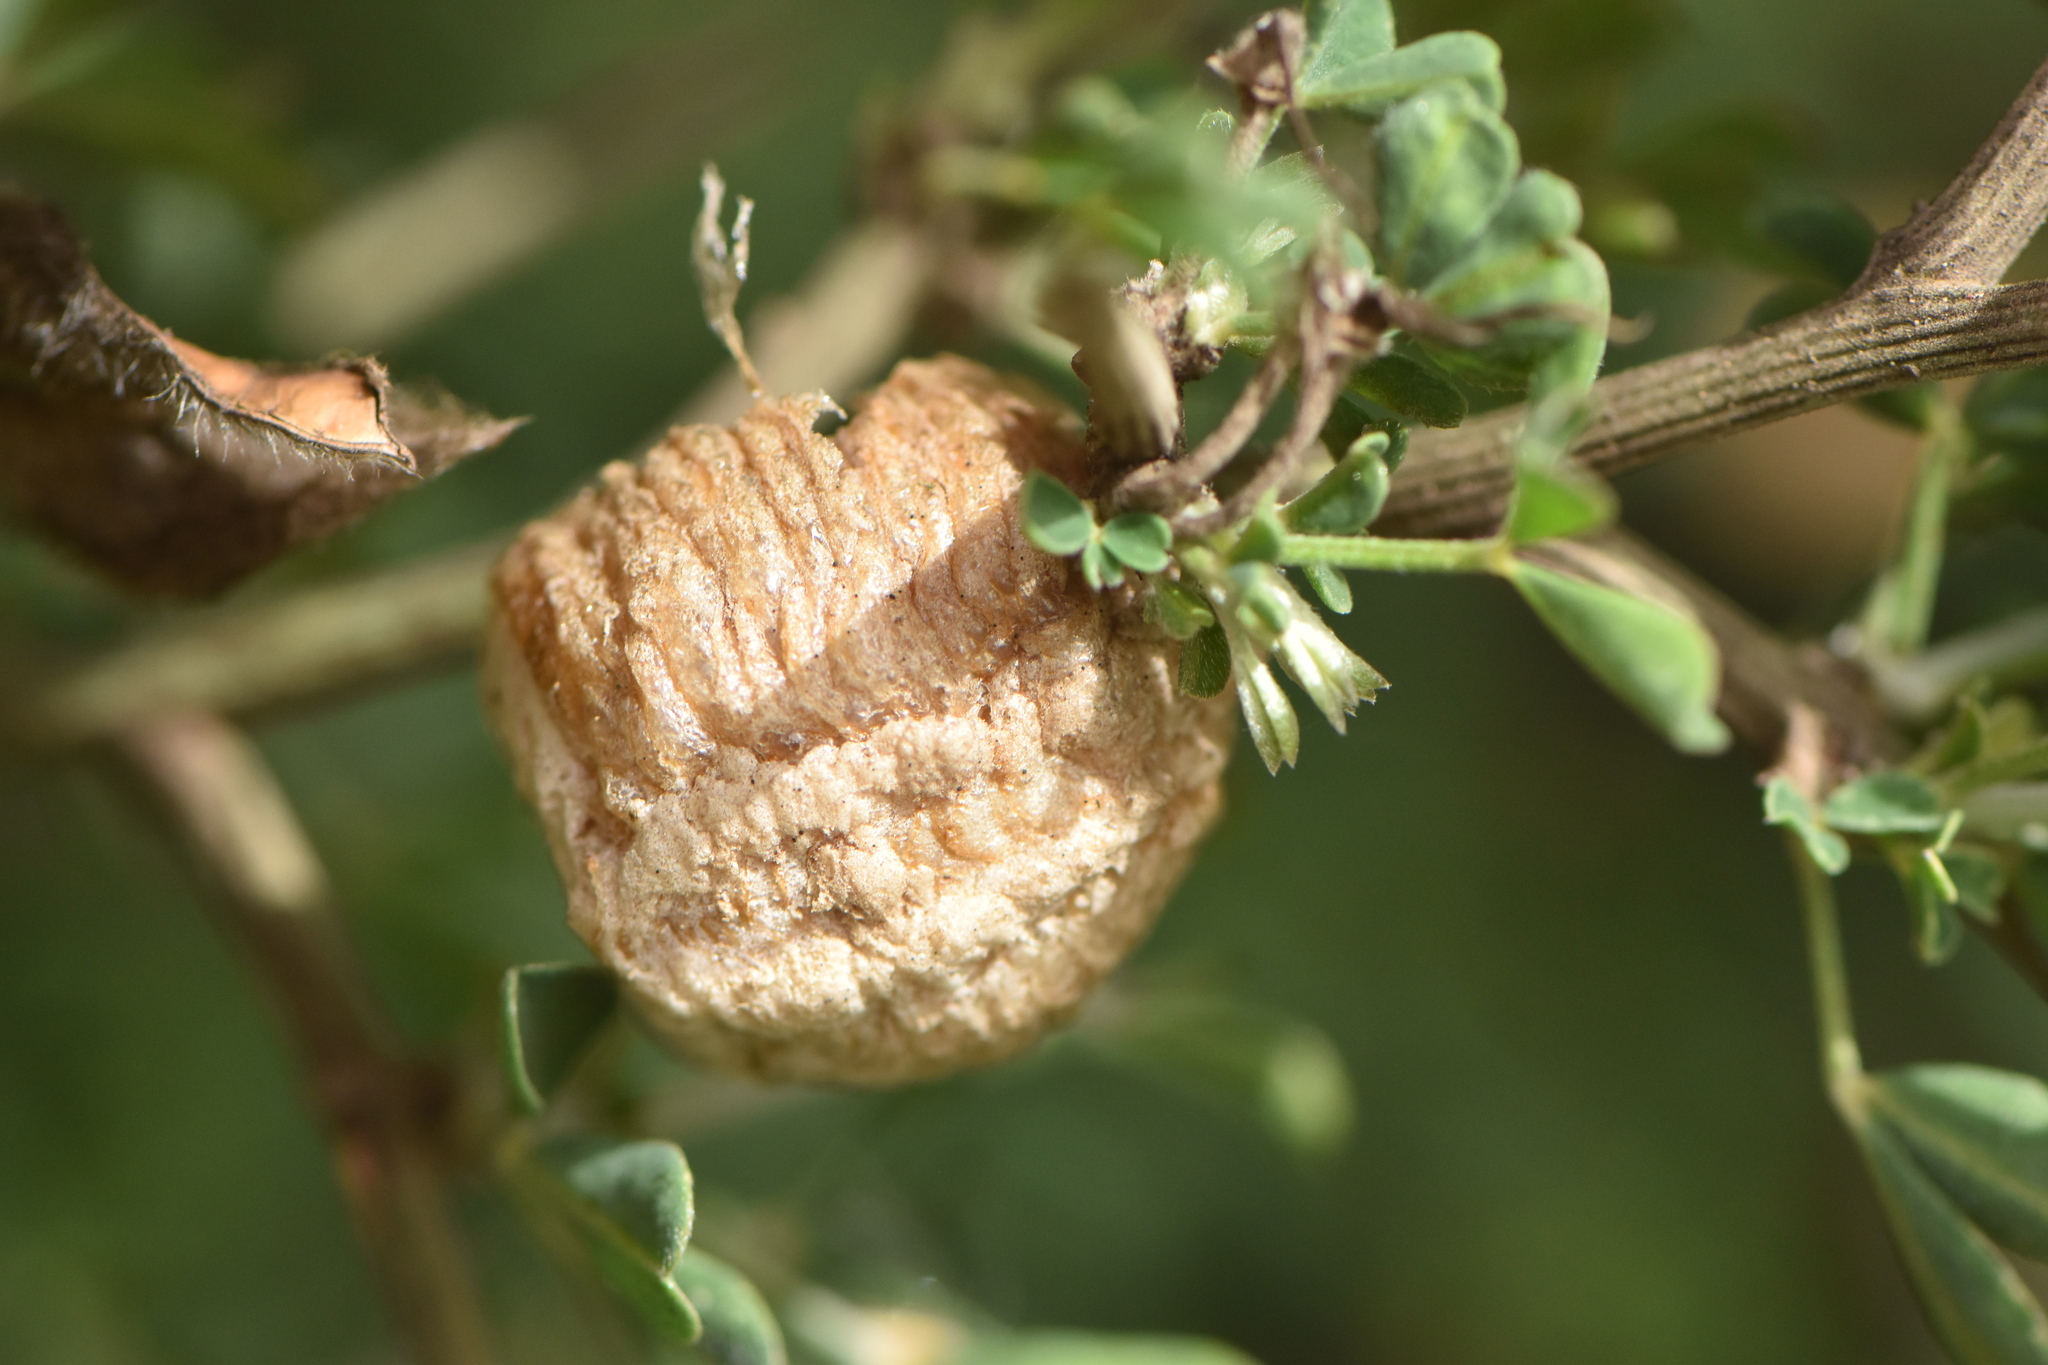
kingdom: Animalia
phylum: Arthropoda
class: Insecta
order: Mantodea
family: Mantidae
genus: Sphodromantis
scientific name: Sphodromantis viridis
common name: Giant african mantis
